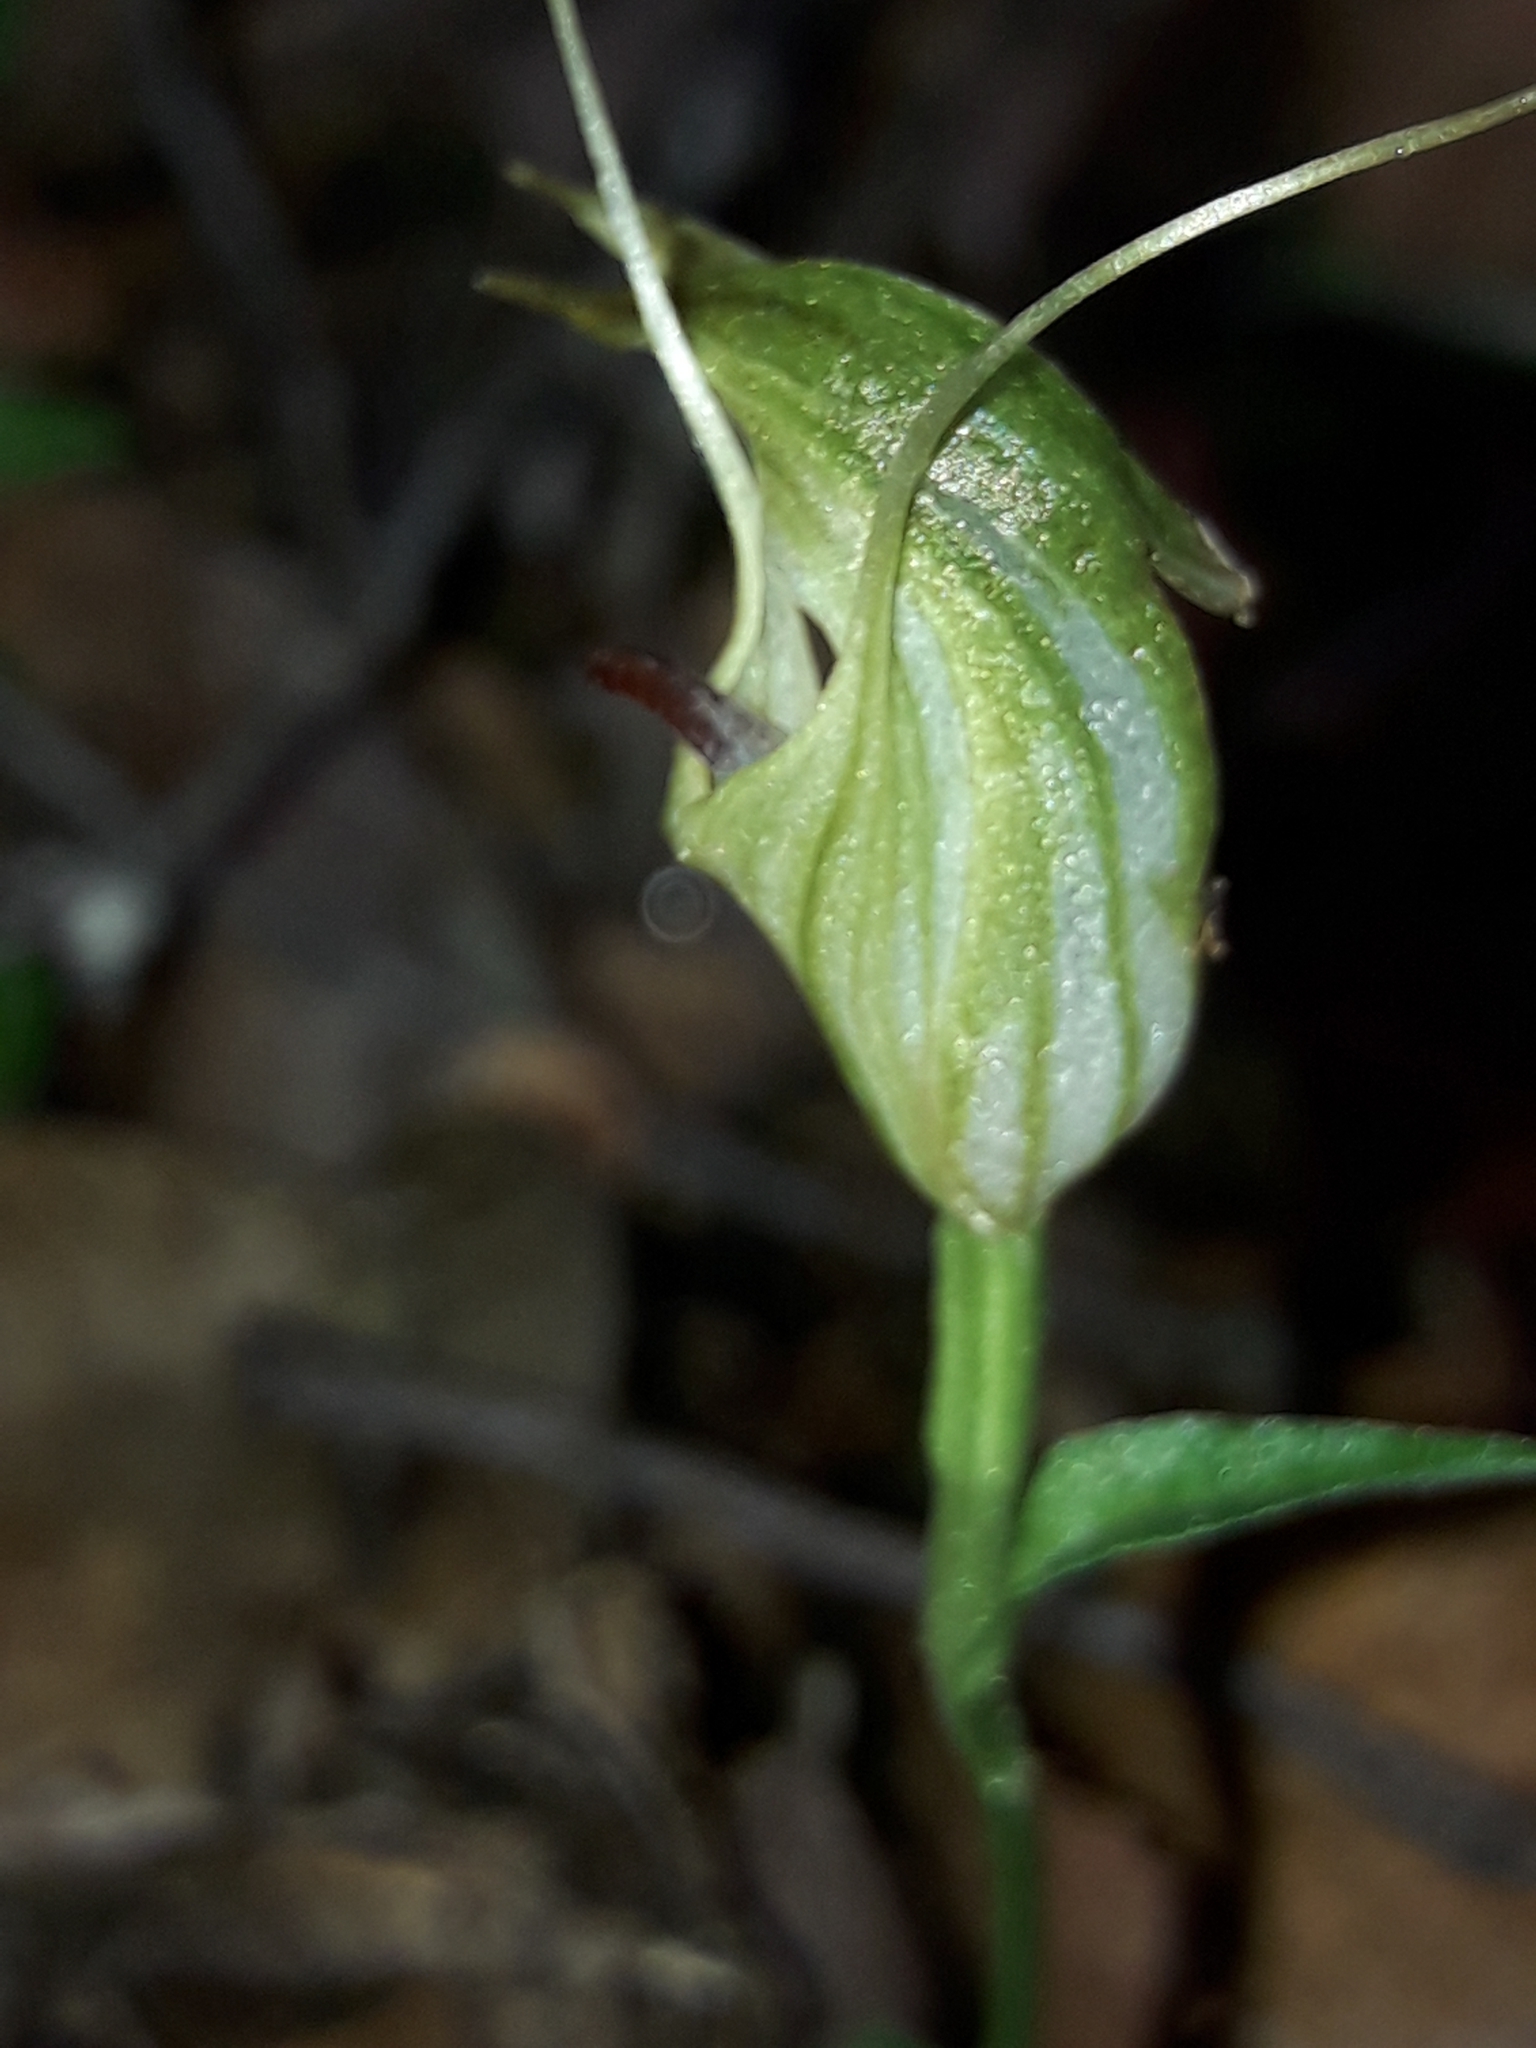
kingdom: Plantae
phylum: Tracheophyta
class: Liliopsida
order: Asparagales
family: Orchidaceae
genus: Pterostylis
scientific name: Pterostylis trullifolia
